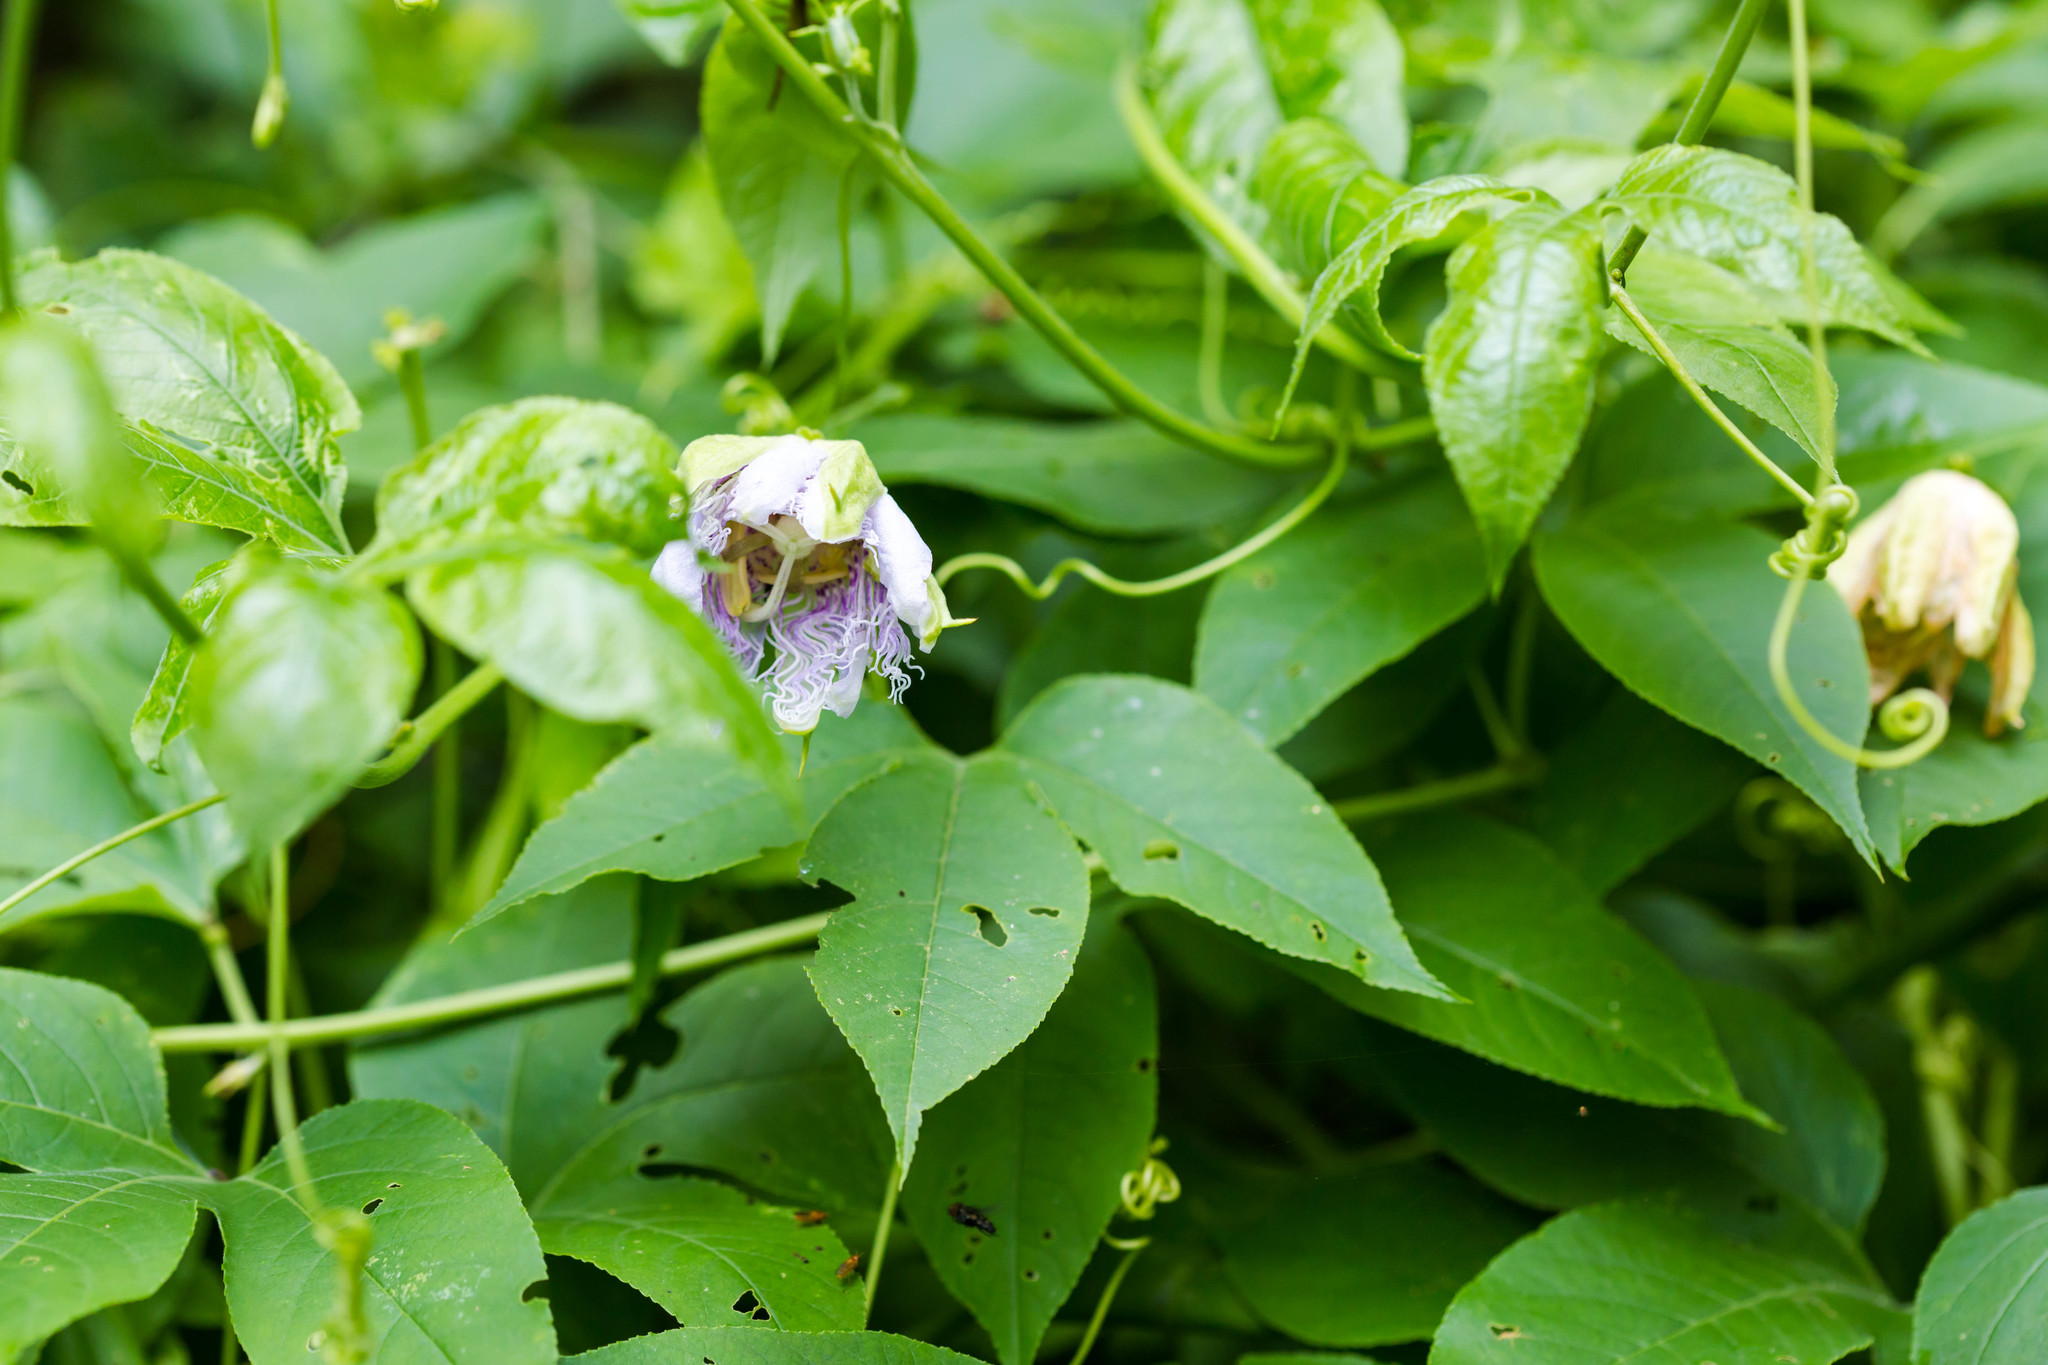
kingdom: Plantae
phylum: Tracheophyta
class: Magnoliopsida
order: Malpighiales
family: Passifloraceae
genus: Passiflora
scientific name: Passiflora incarnata
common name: Apricot-vine
